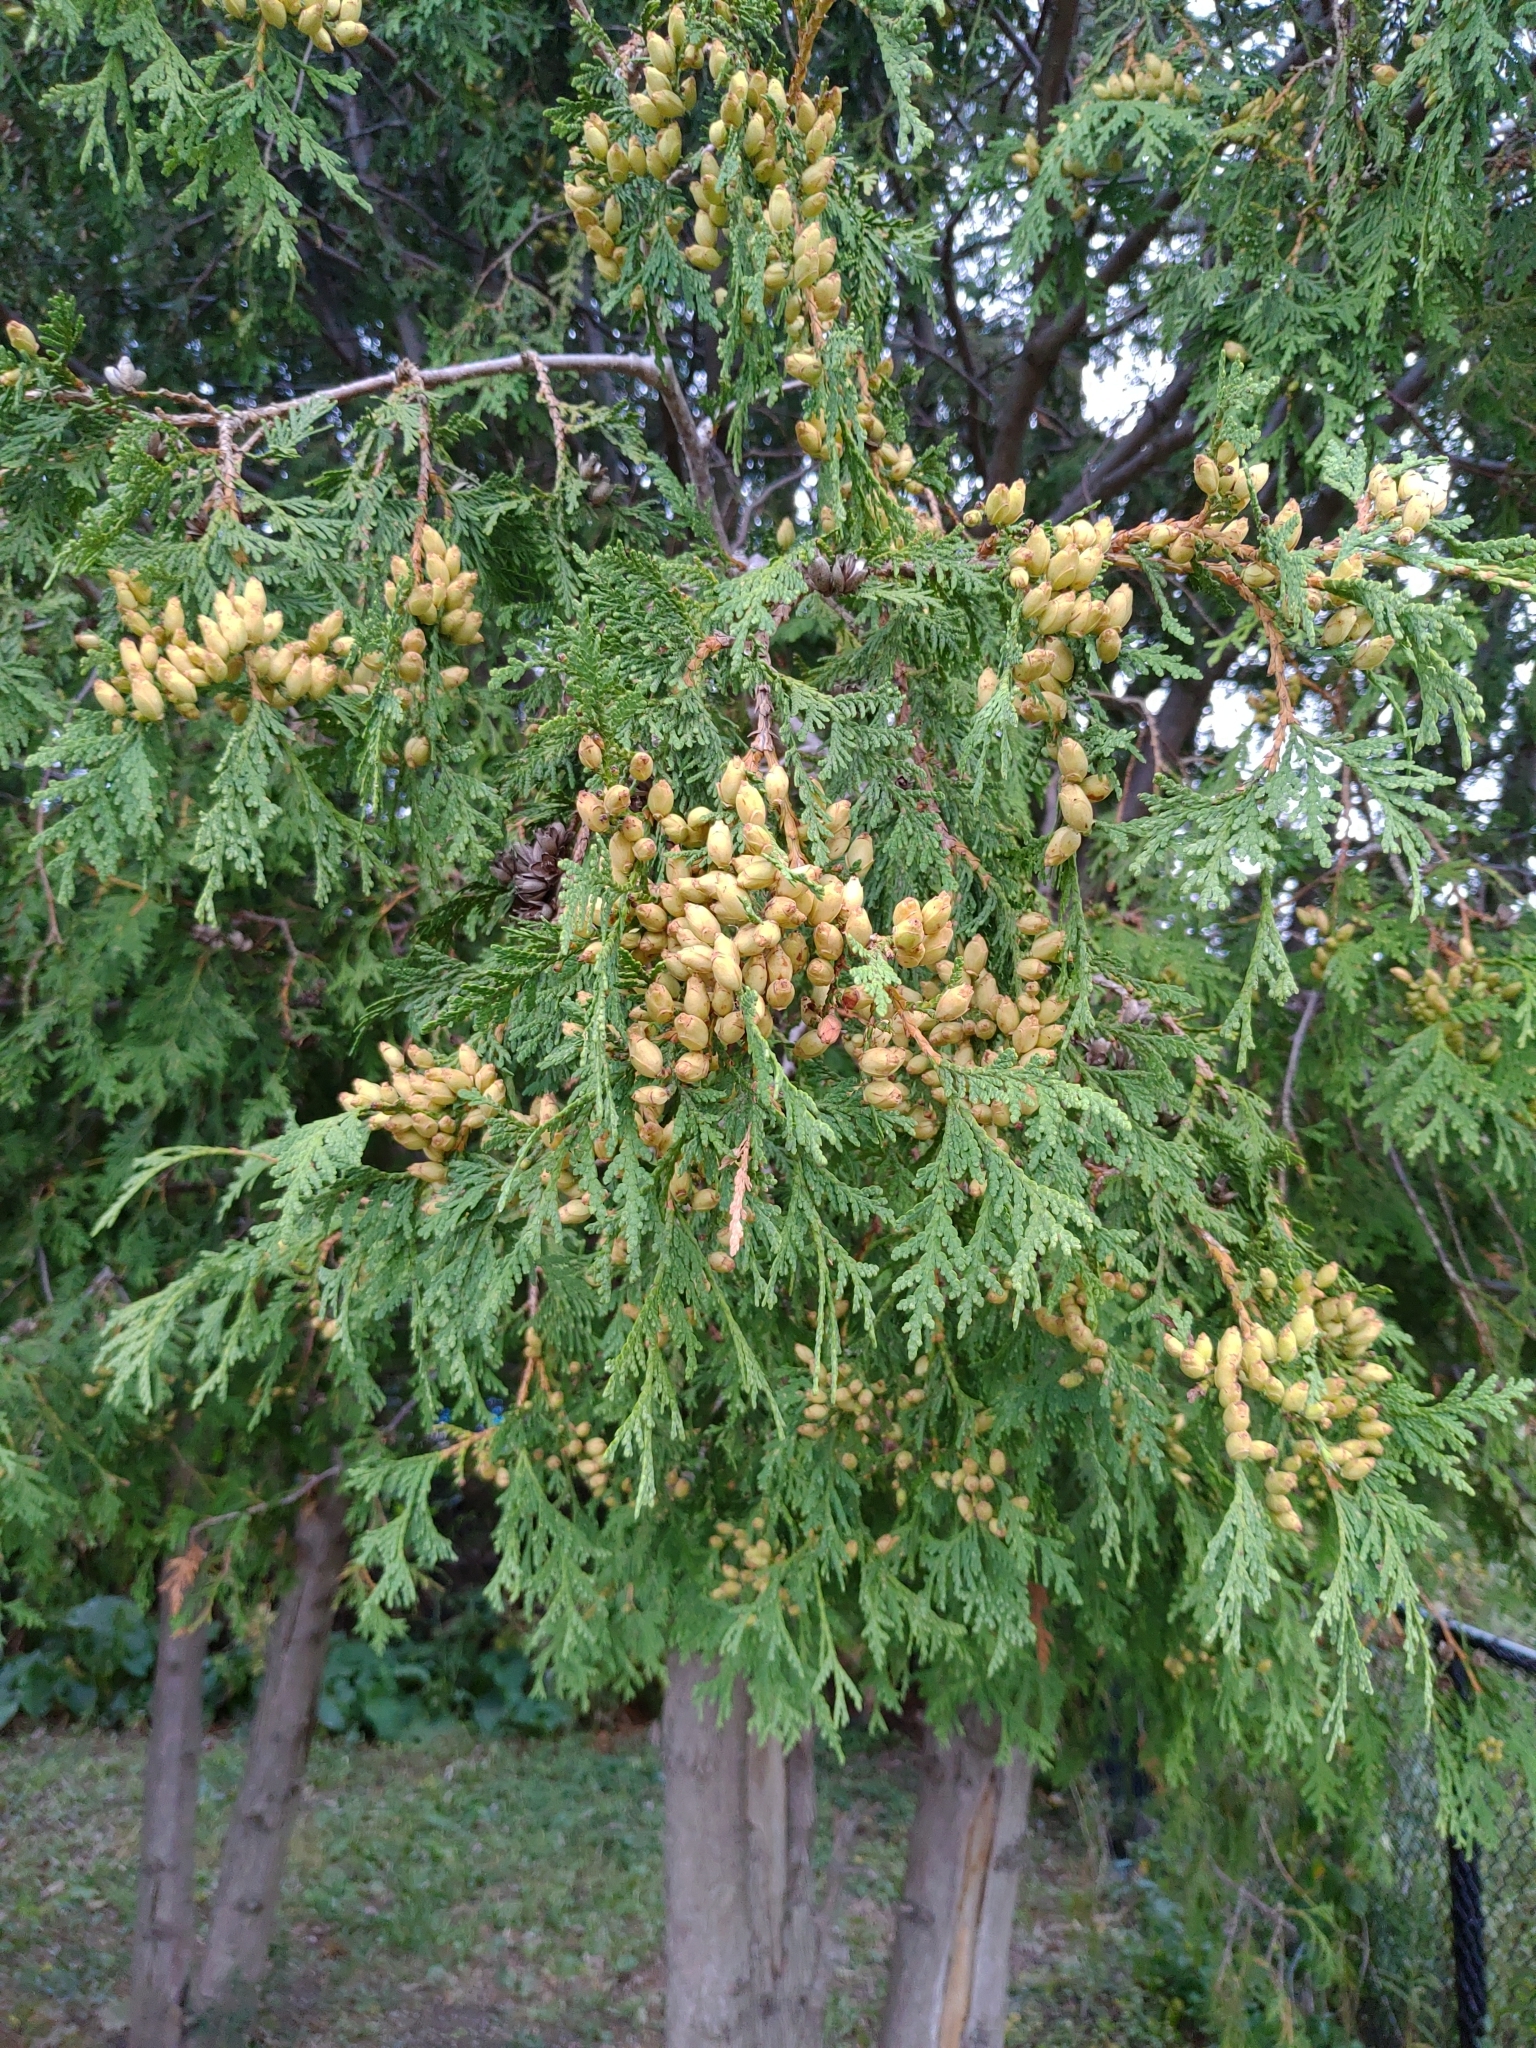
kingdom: Plantae
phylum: Tracheophyta
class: Pinopsida
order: Pinales
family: Cupressaceae
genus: Thuja
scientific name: Thuja occidentalis
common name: Northern white-cedar
